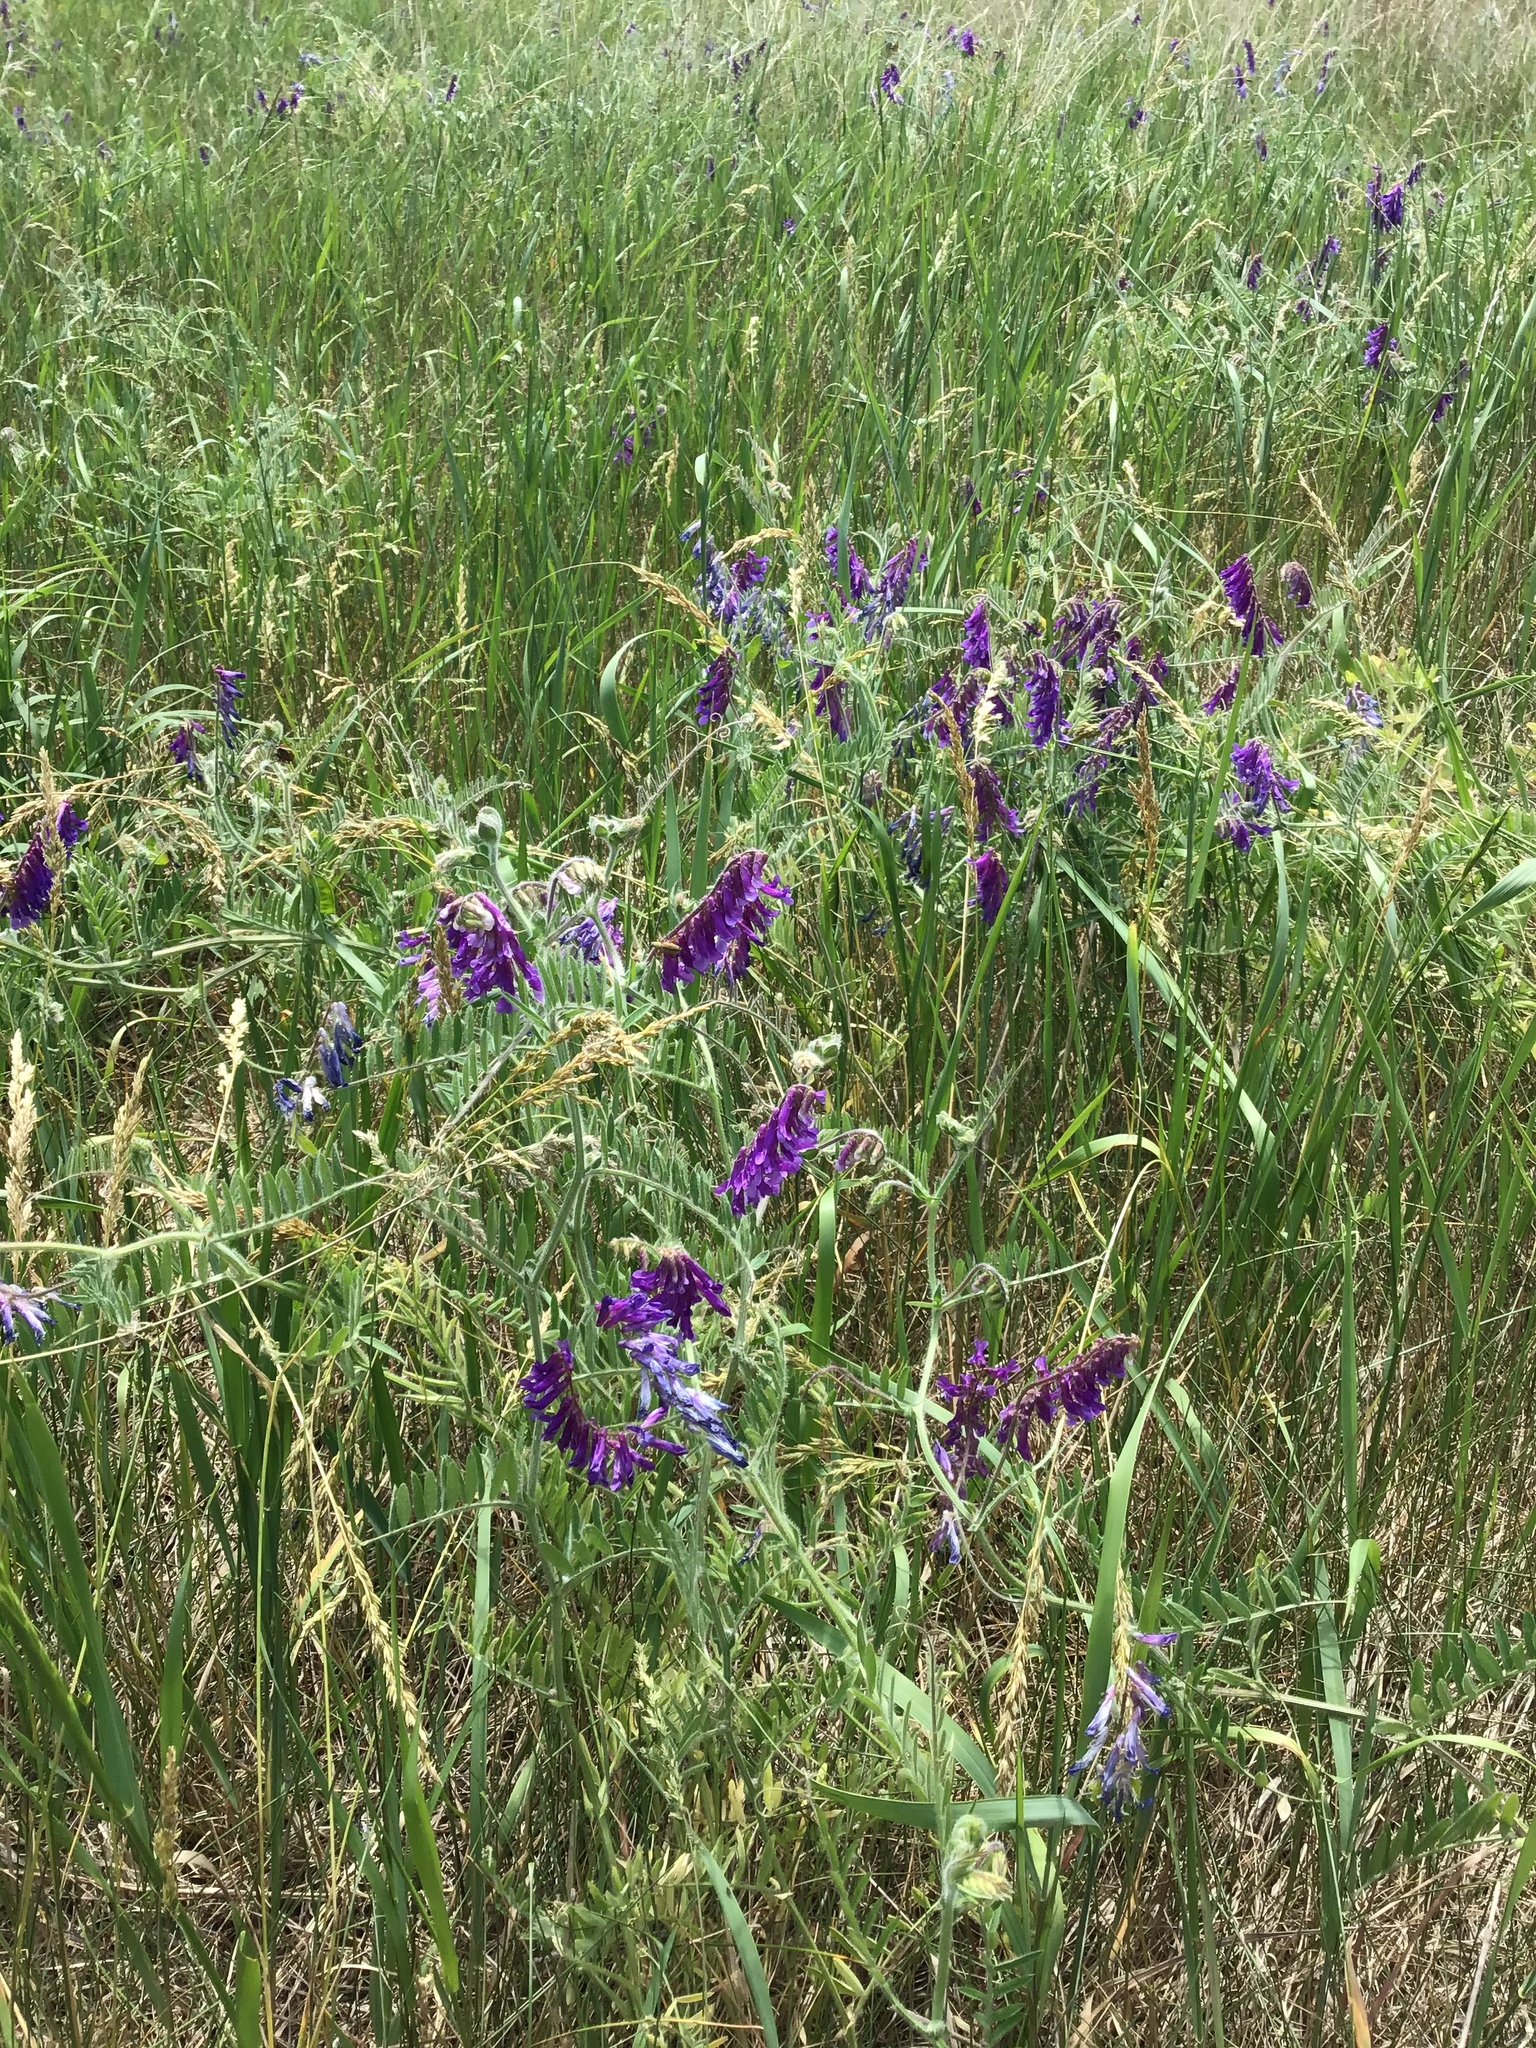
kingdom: Plantae
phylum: Tracheophyta
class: Magnoliopsida
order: Fabales
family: Fabaceae
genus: Vicia
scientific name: Vicia villosa
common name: Fodder vetch
